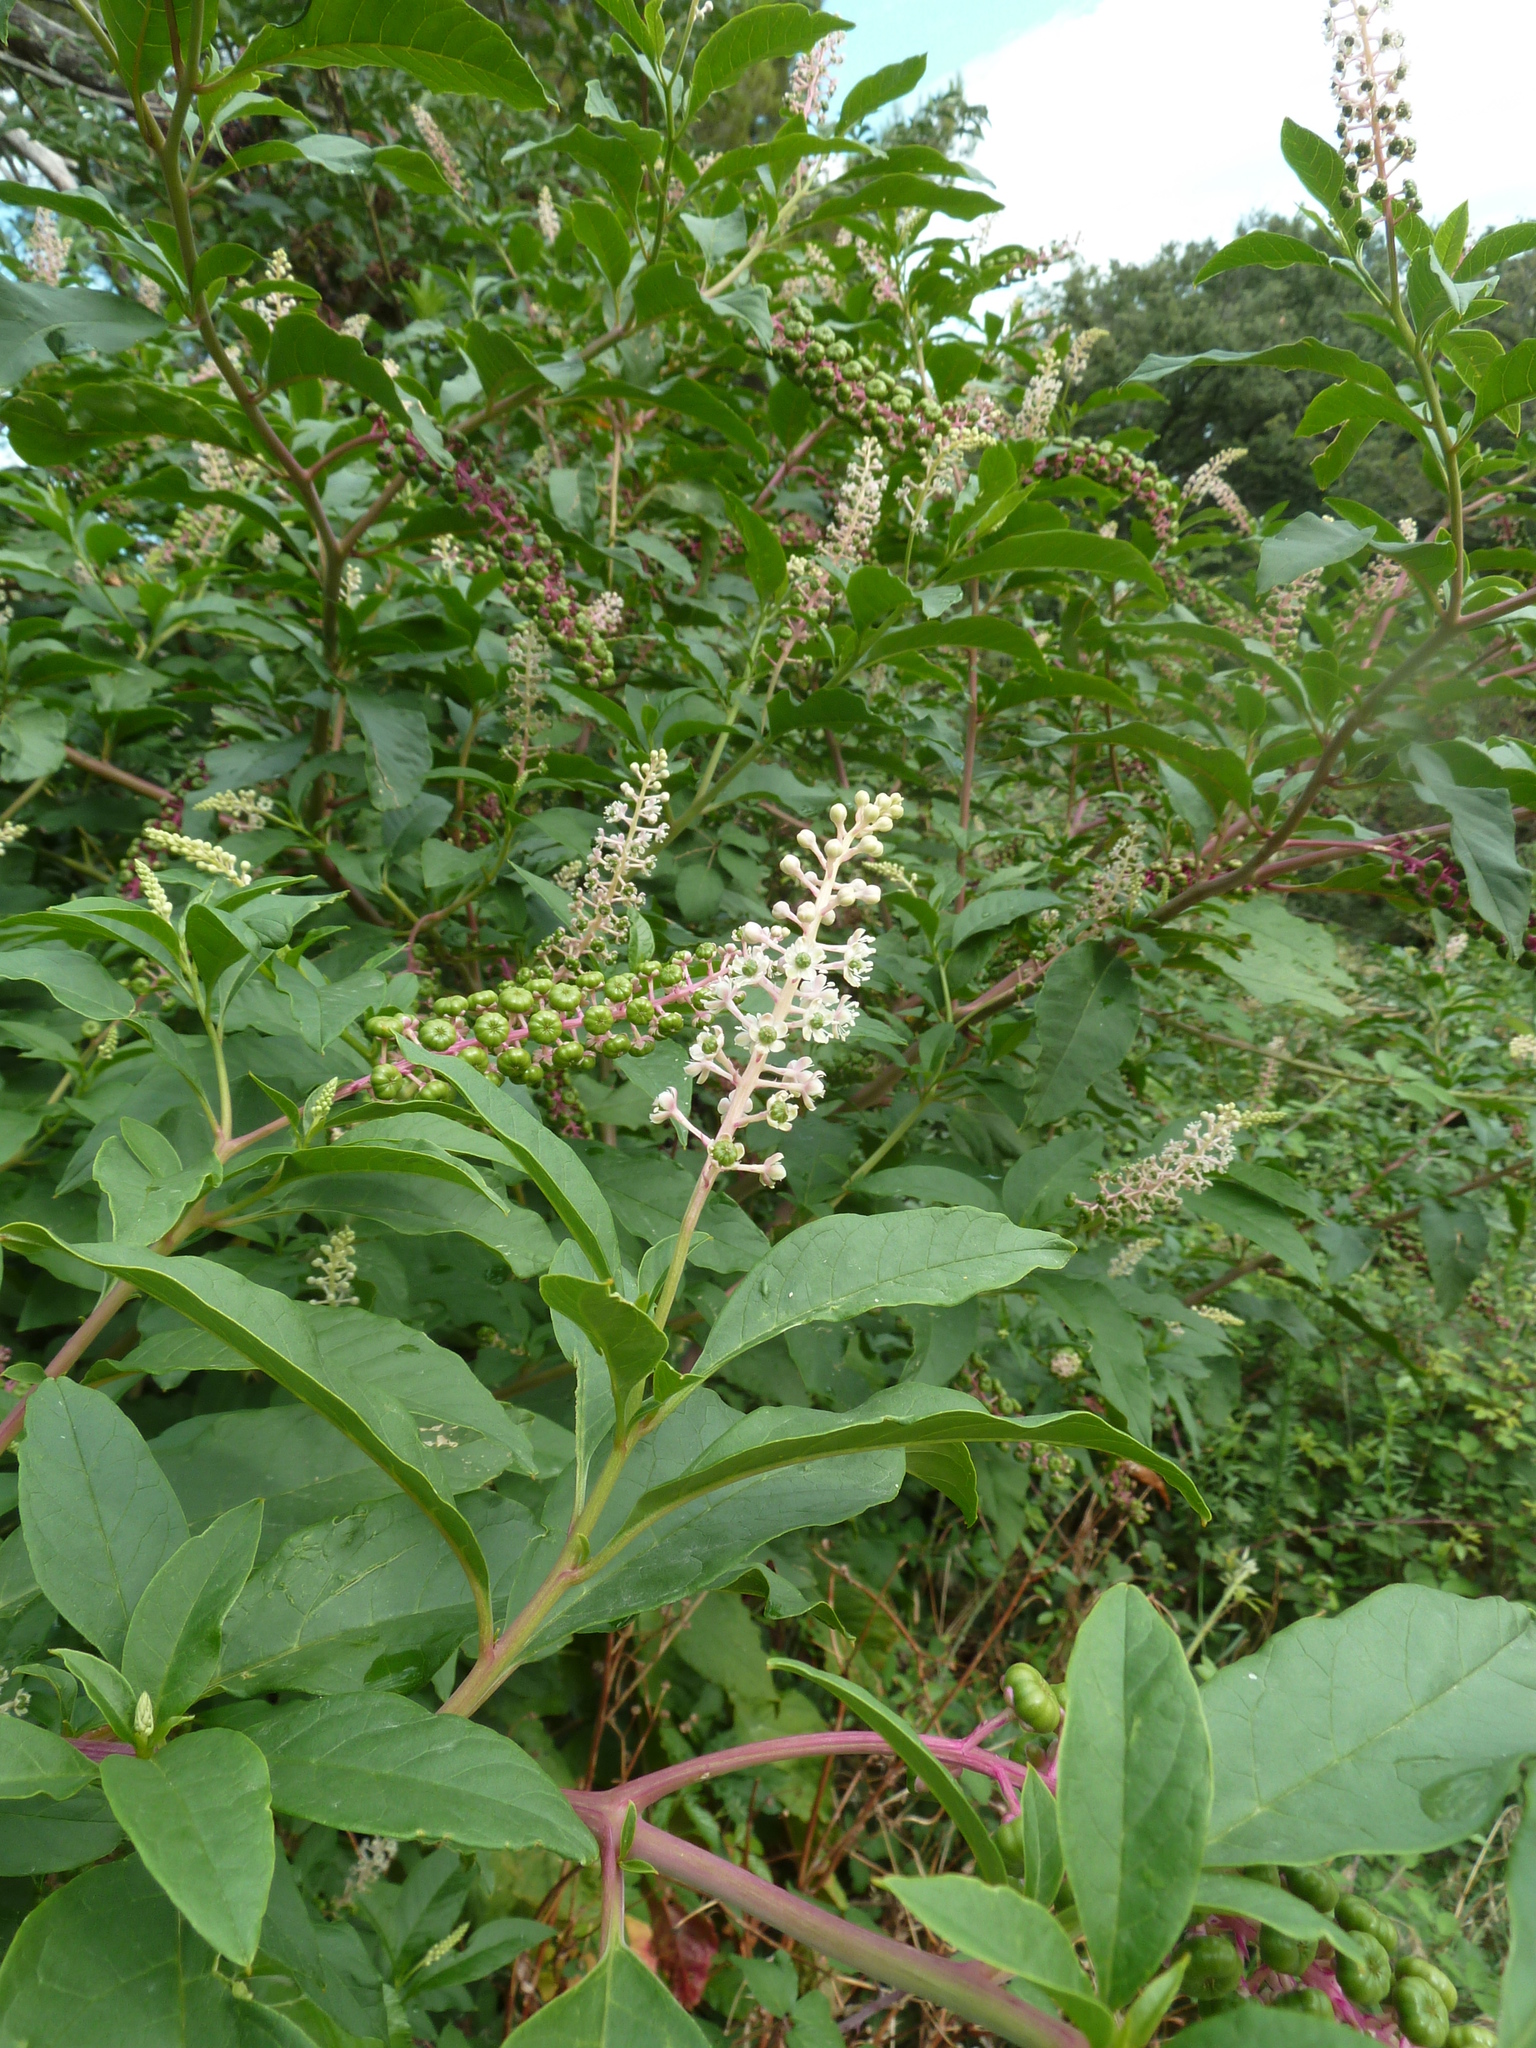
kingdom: Plantae
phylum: Tracheophyta
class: Magnoliopsida
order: Caryophyllales
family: Phytolaccaceae
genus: Phytolacca
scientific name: Phytolacca americana
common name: American pokeweed
